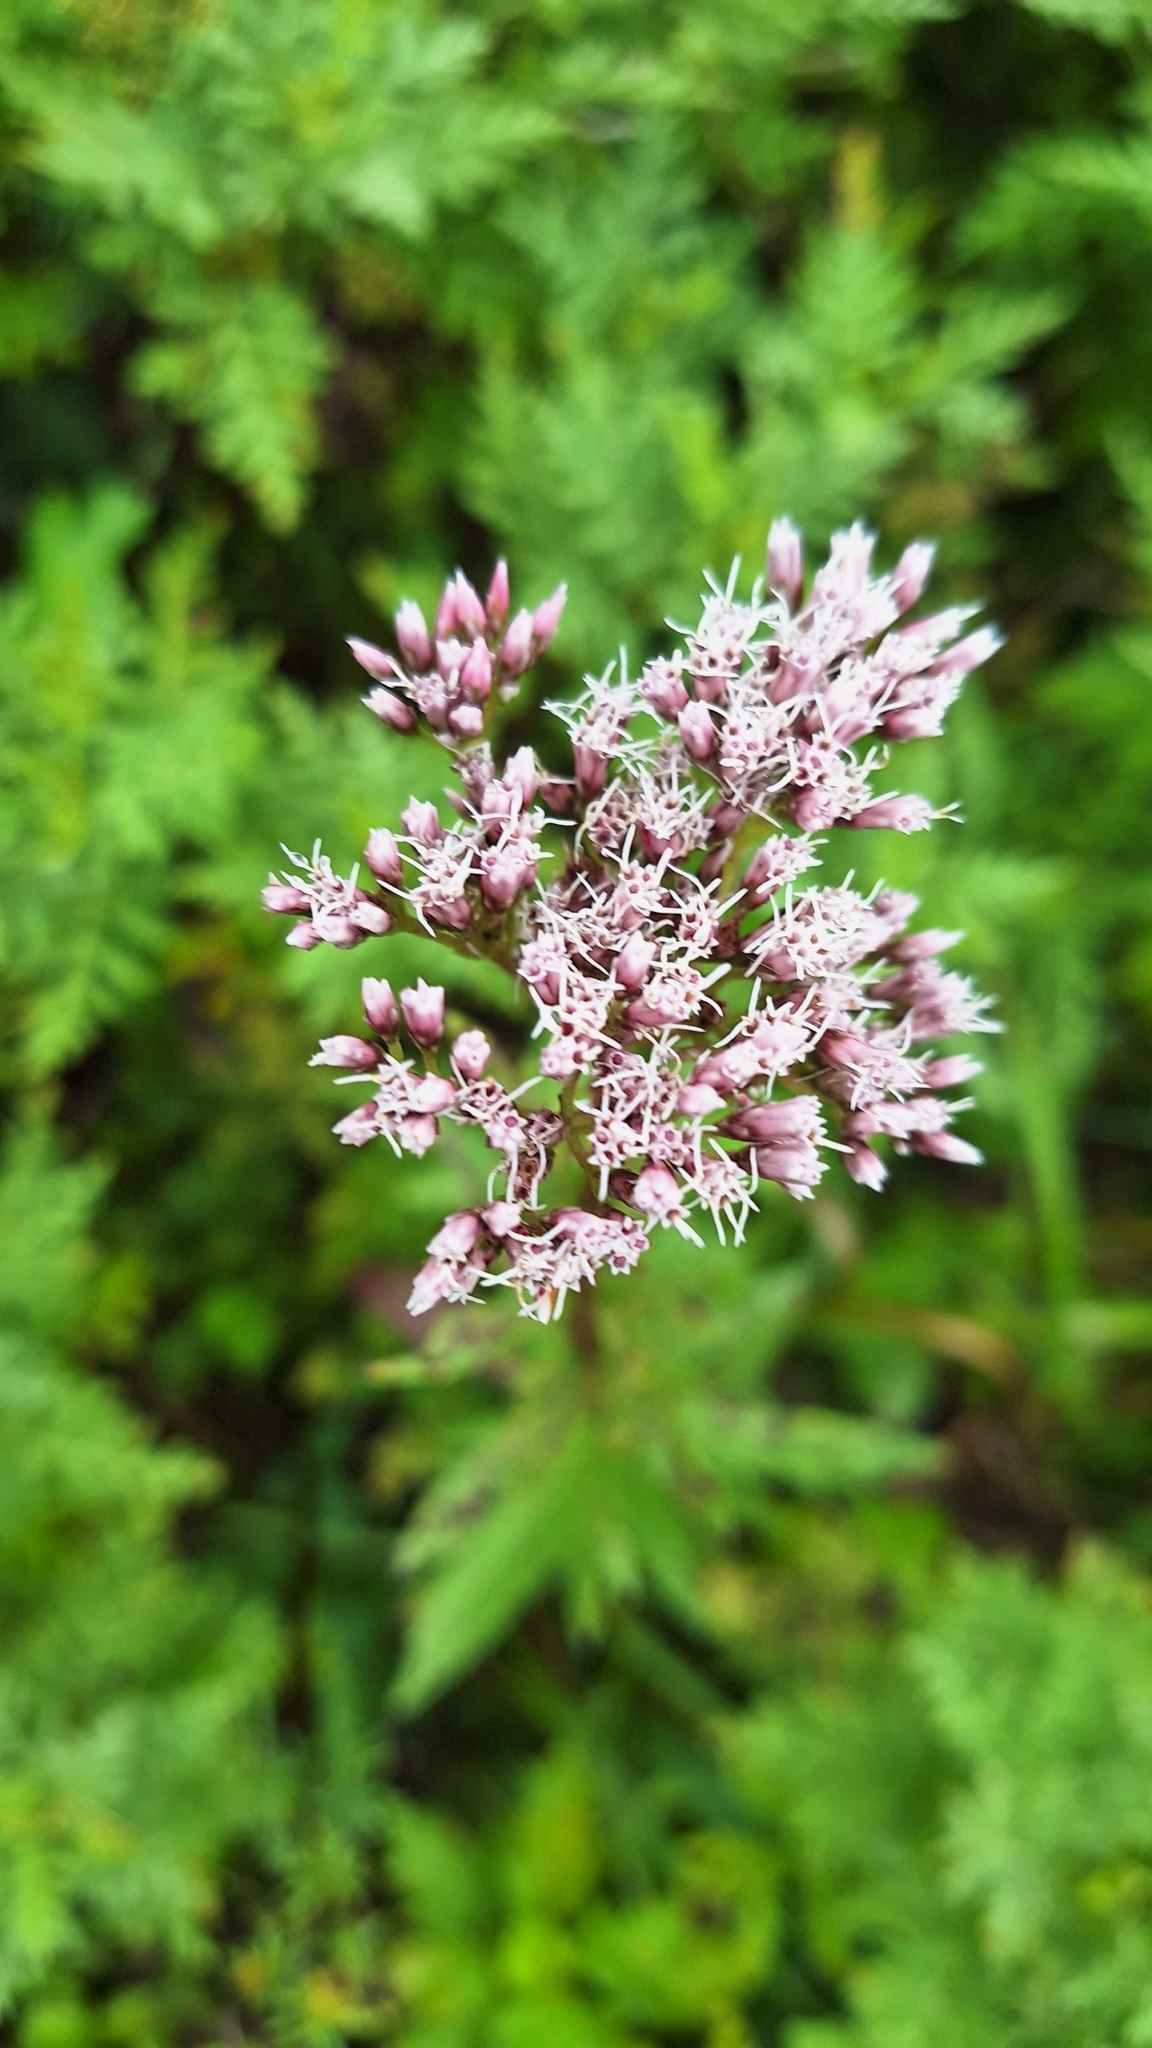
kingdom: Plantae
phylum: Tracheophyta
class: Magnoliopsida
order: Asterales
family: Asteraceae
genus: Eupatorium
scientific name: Eupatorium lindleyanum
